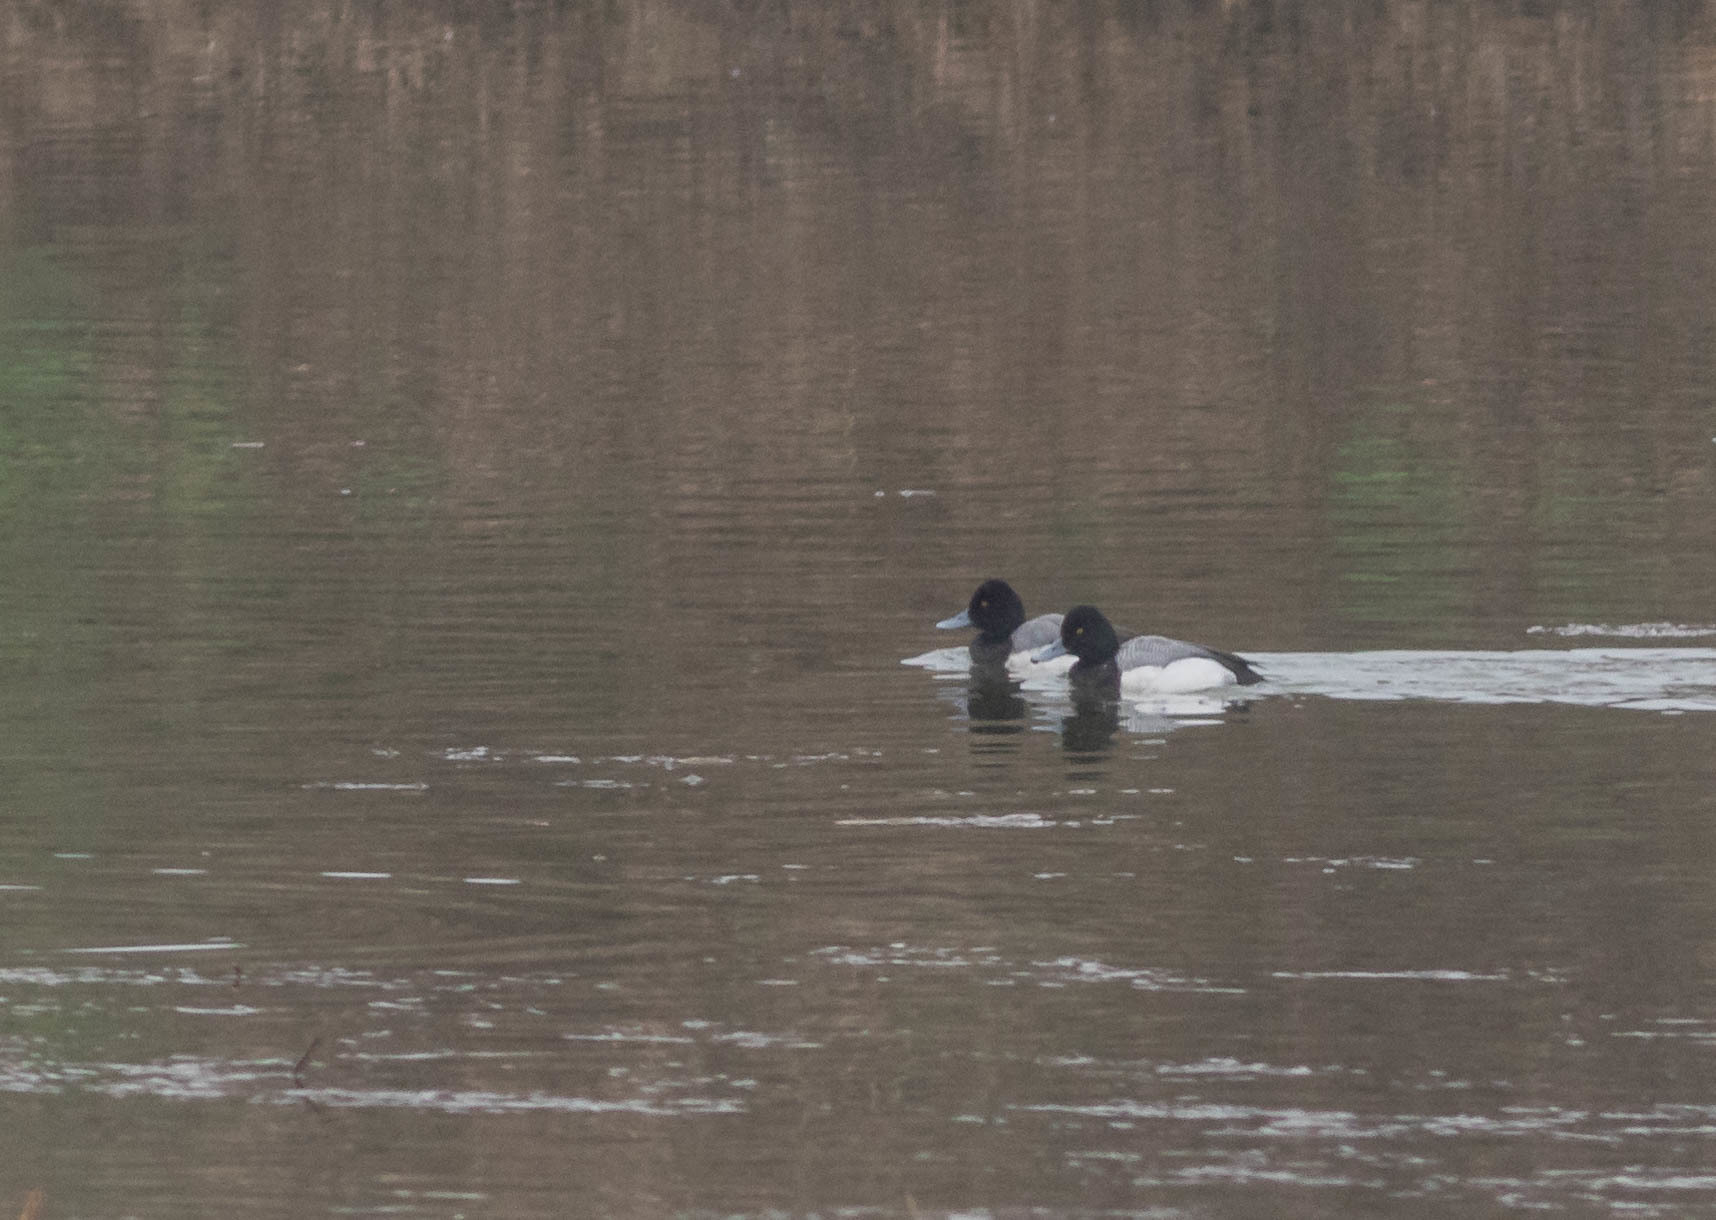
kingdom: Animalia
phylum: Chordata
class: Aves
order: Anseriformes
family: Anatidae
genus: Aythya
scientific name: Aythya affinis
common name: Lesser scaup
